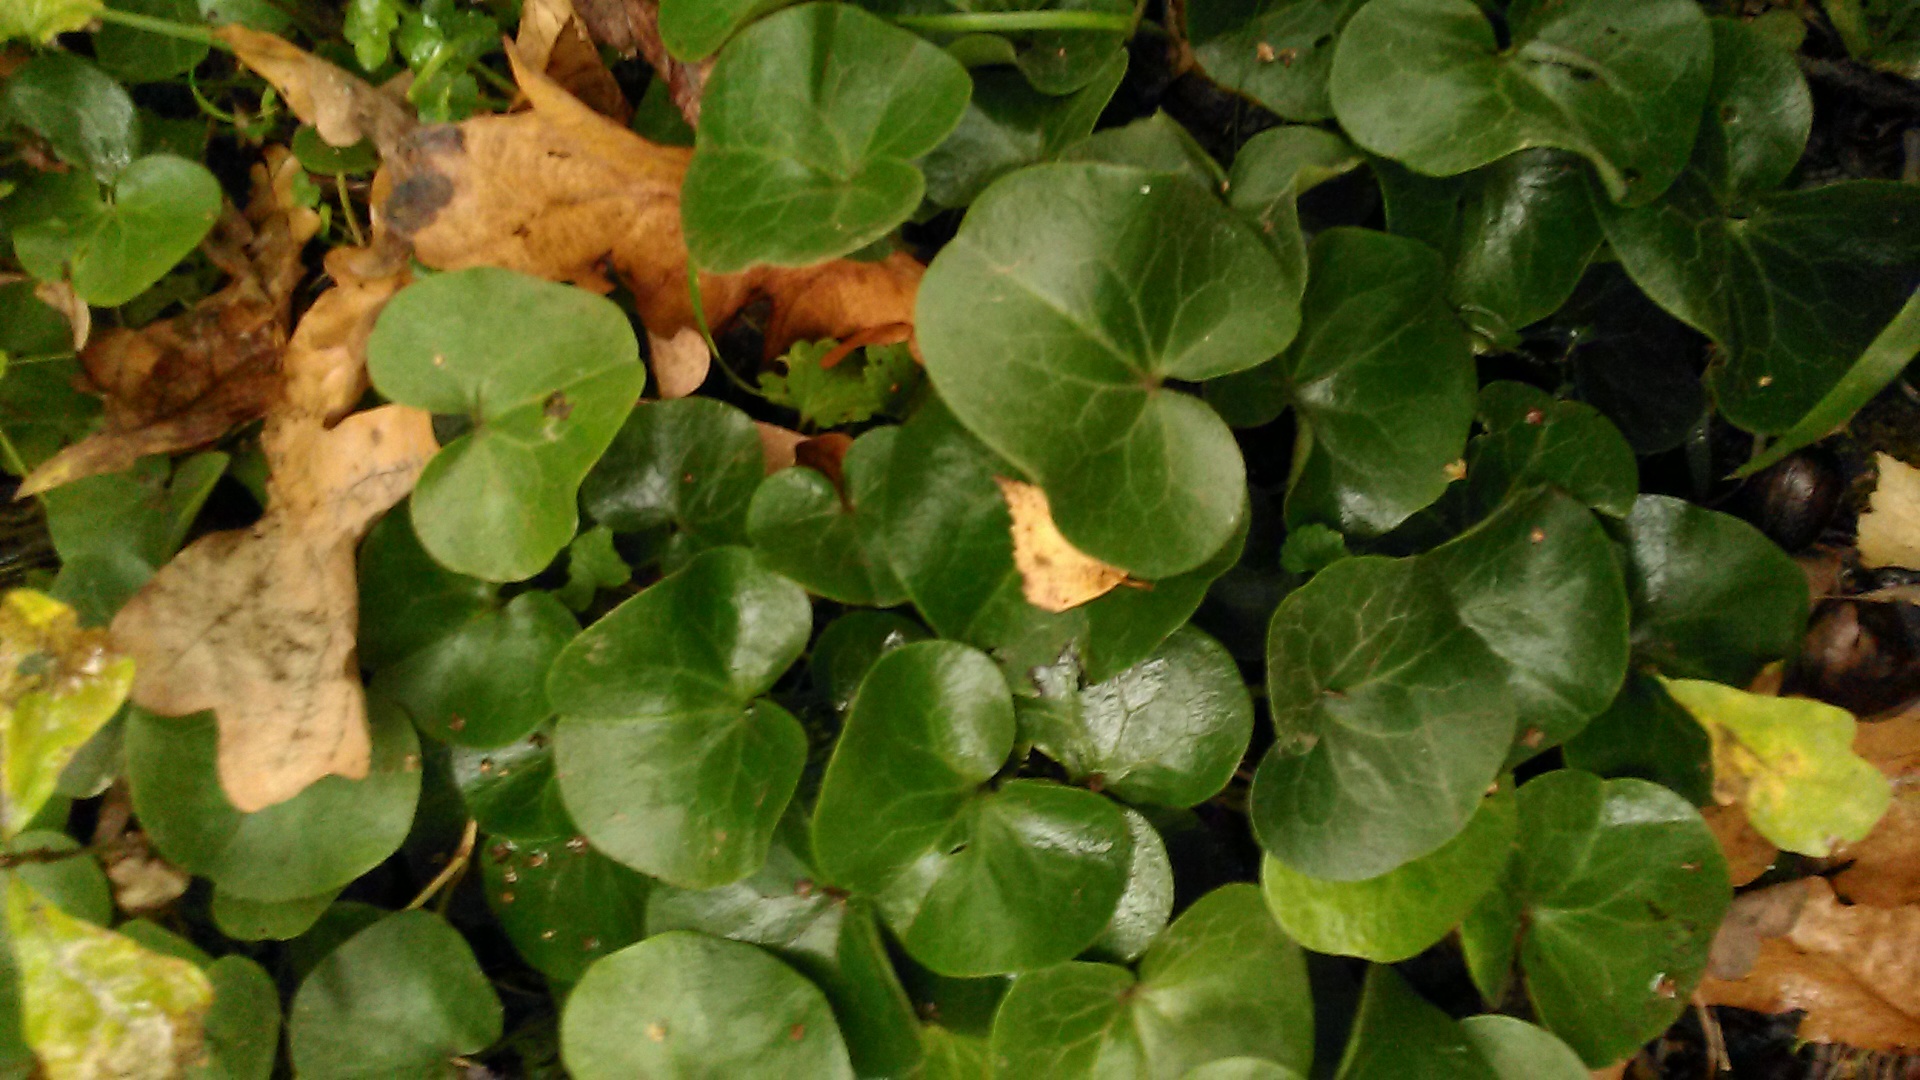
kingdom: Plantae
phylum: Tracheophyta
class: Magnoliopsida
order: Piperales
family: Aristolochiaceae
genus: Asarum
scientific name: Asarum europaeum
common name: Asarabacca
